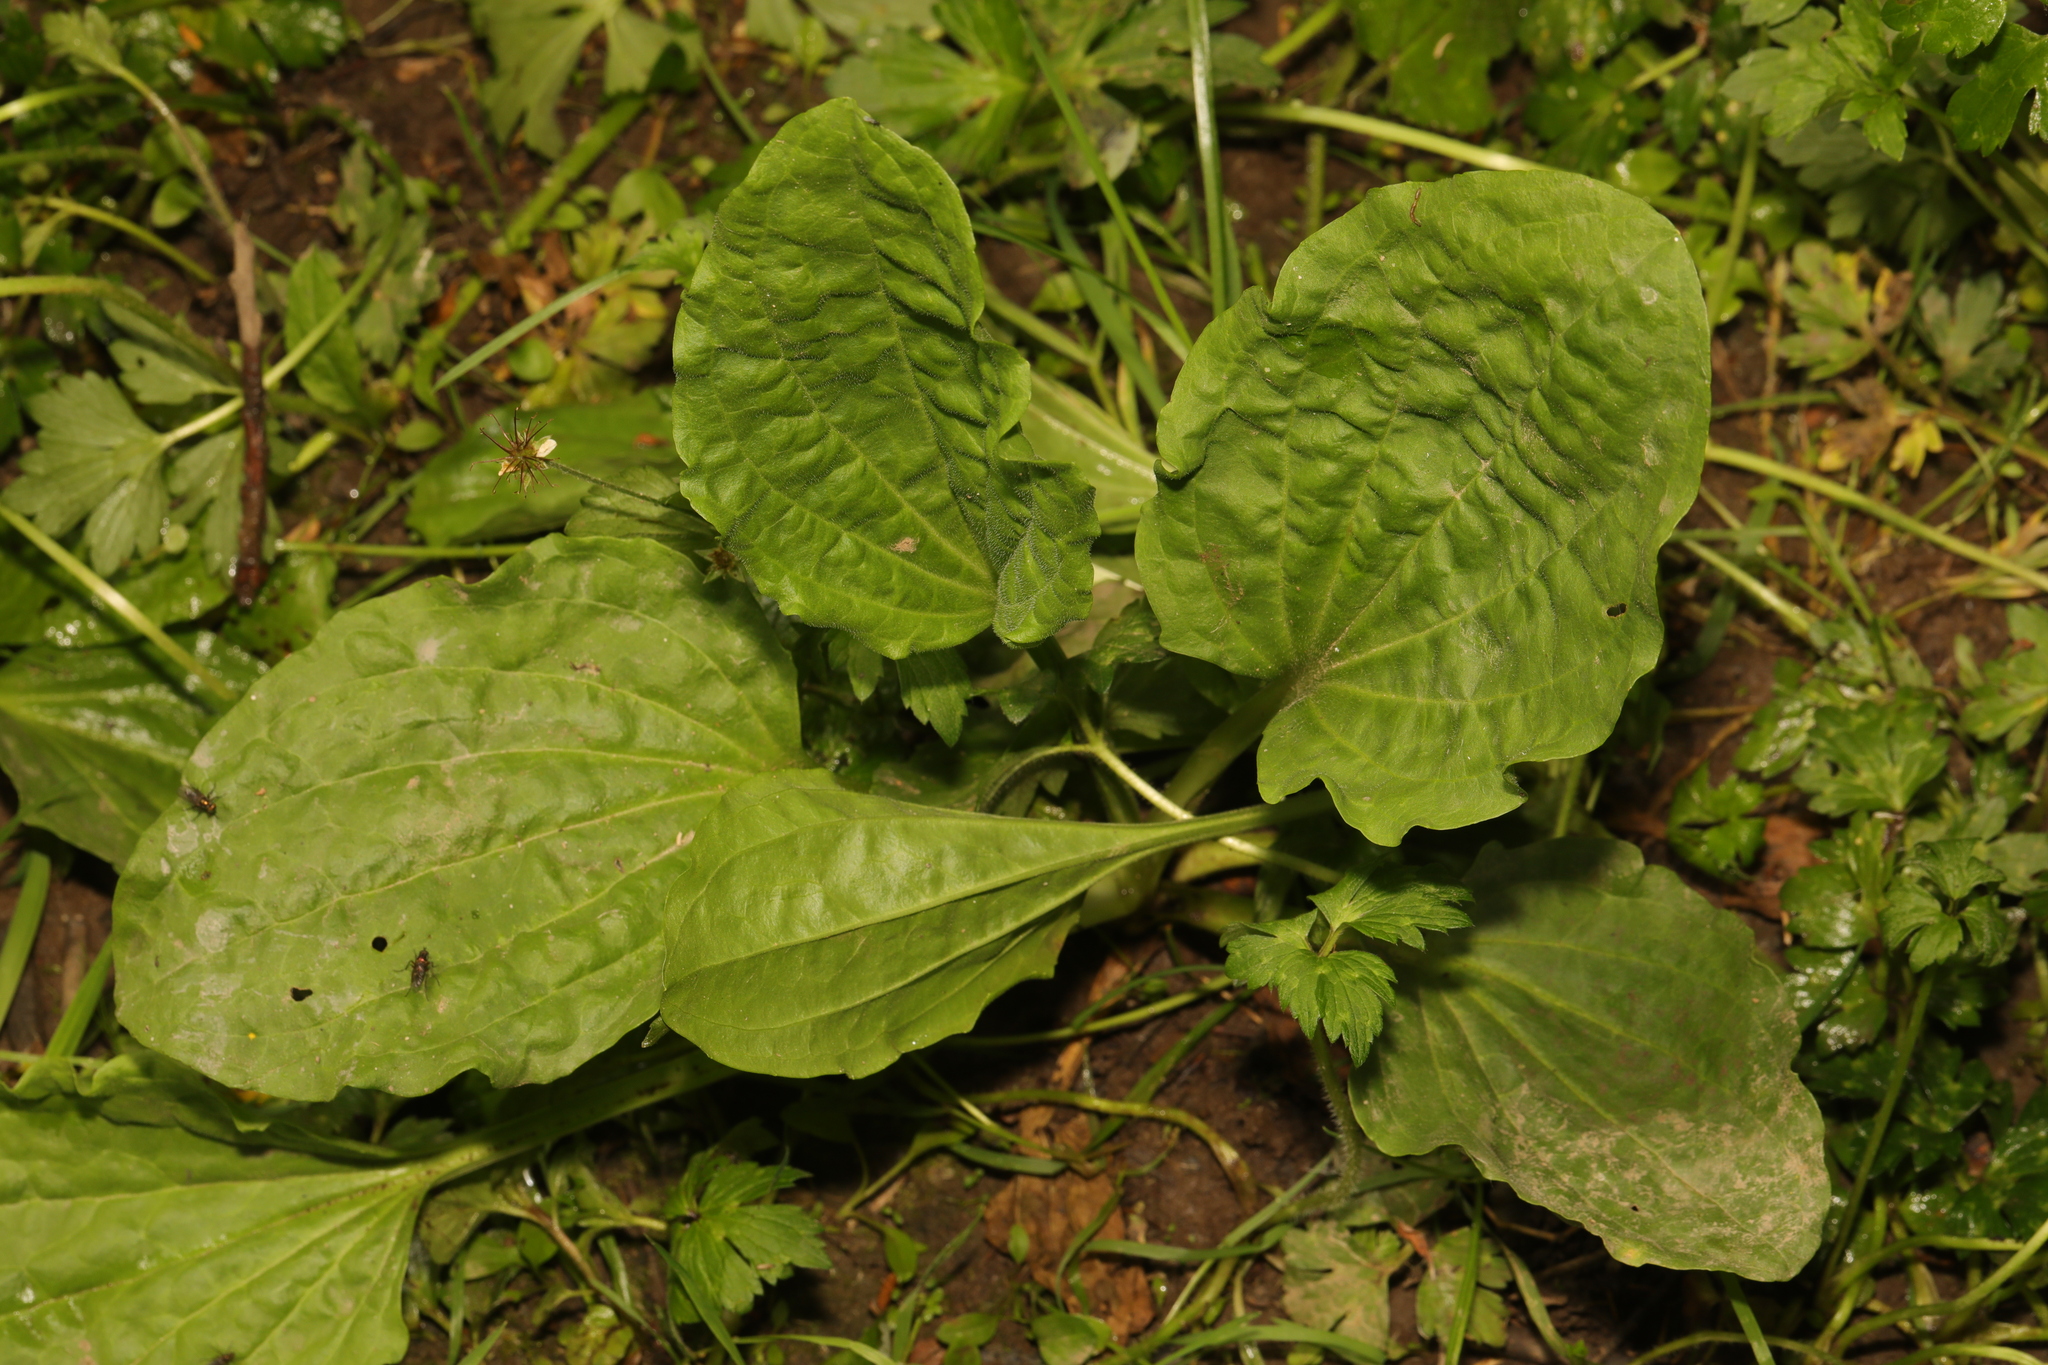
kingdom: Plantae
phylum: Tracheophyta
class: Magnoliopsida
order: Lamiales
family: Plantaginaceae
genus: Plantago
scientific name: Plantago major
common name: Common plantain
